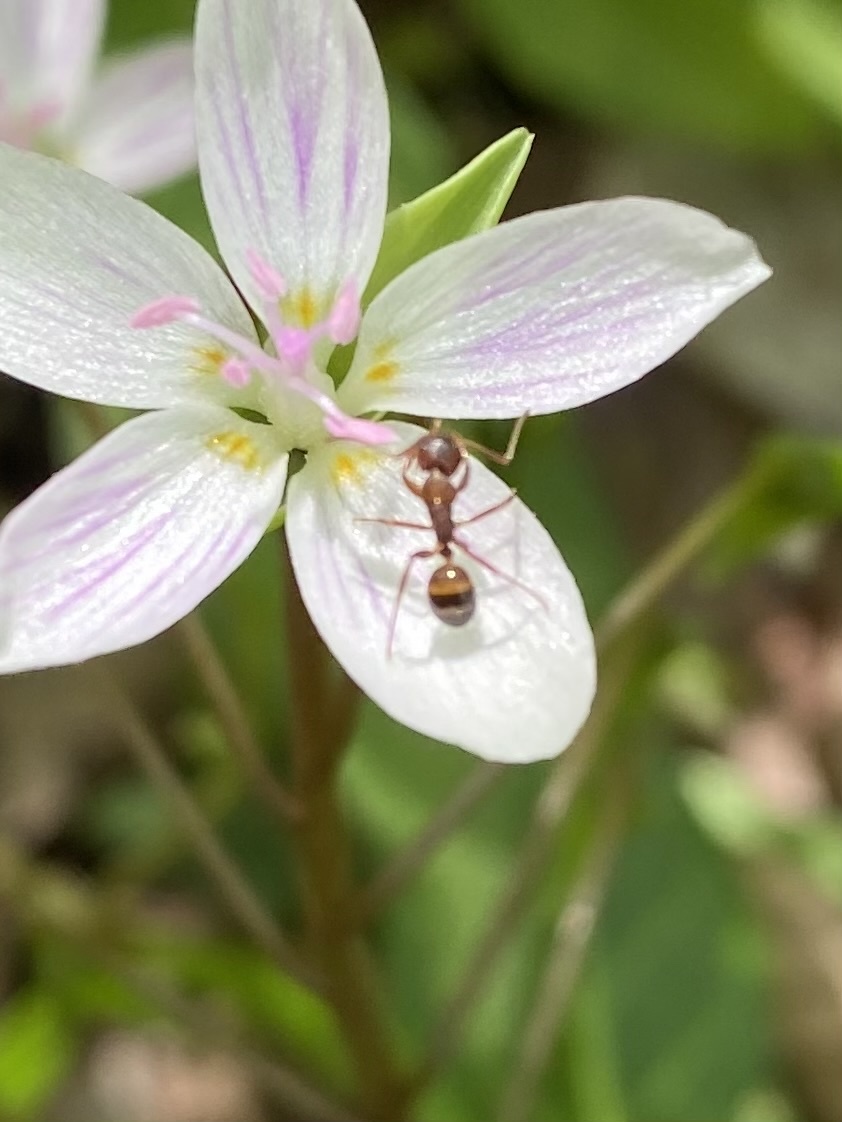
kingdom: Animalia
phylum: Arthropoda
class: Insecta
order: Hymenoptera
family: Formicidae
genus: Camponotus
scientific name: Camponotus subbarbatus
